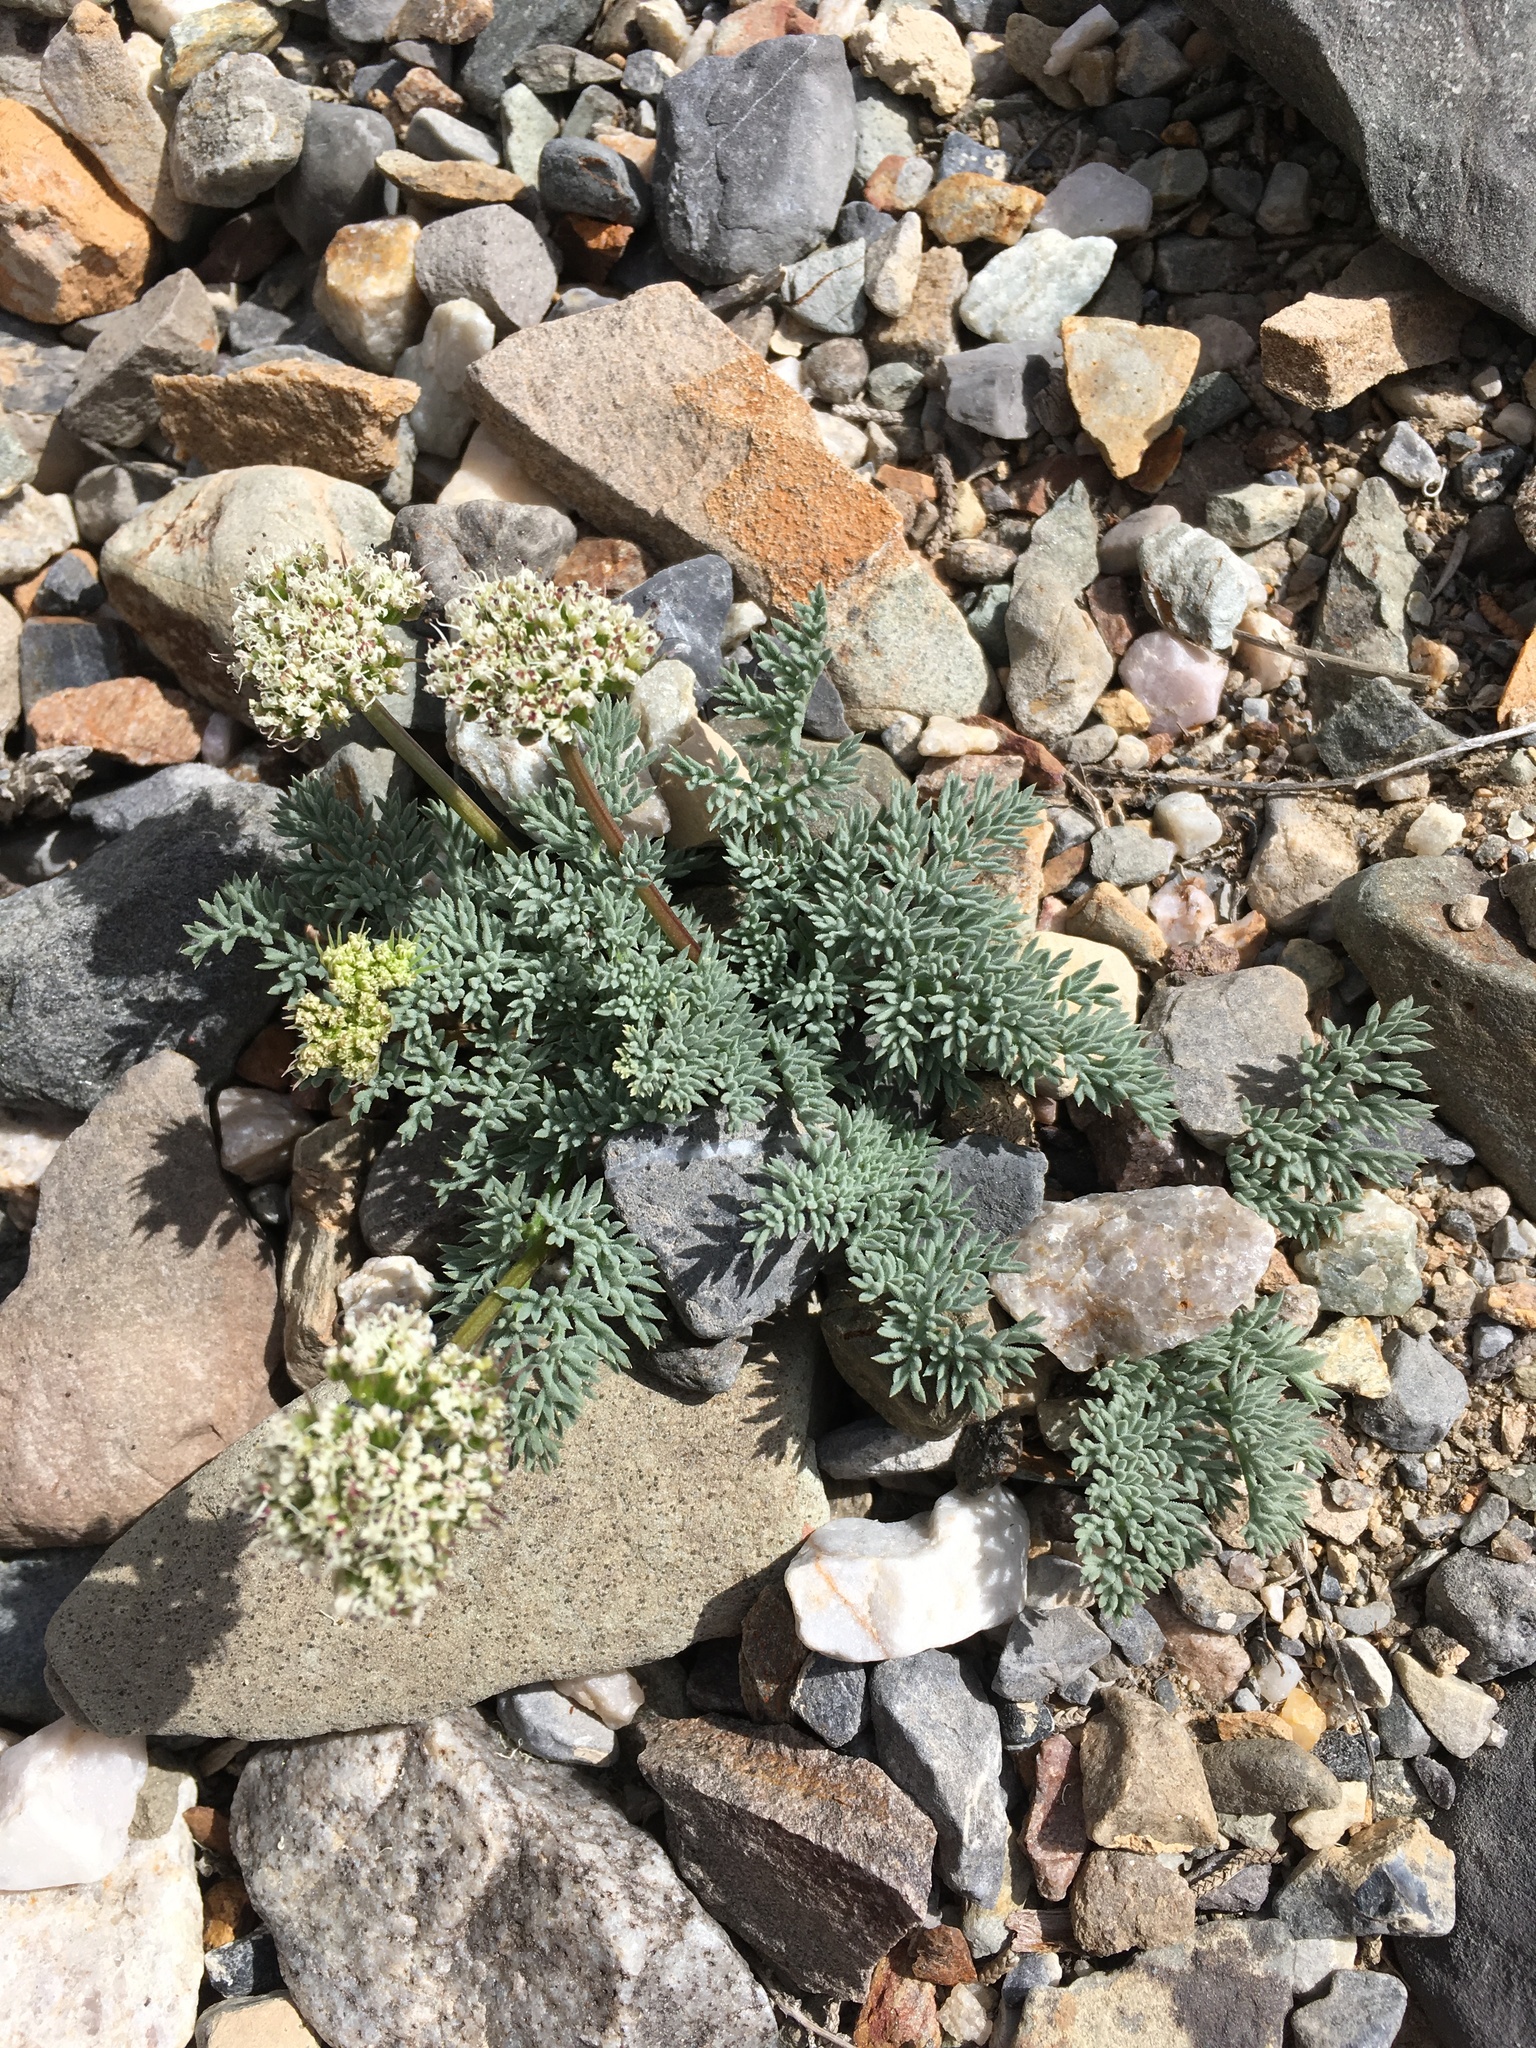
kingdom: Plantae
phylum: Tracheophyta
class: Magnoliopsida
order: Apiales
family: Apiaceae
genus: Aulospermum
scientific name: Aulospermum aboriginum
